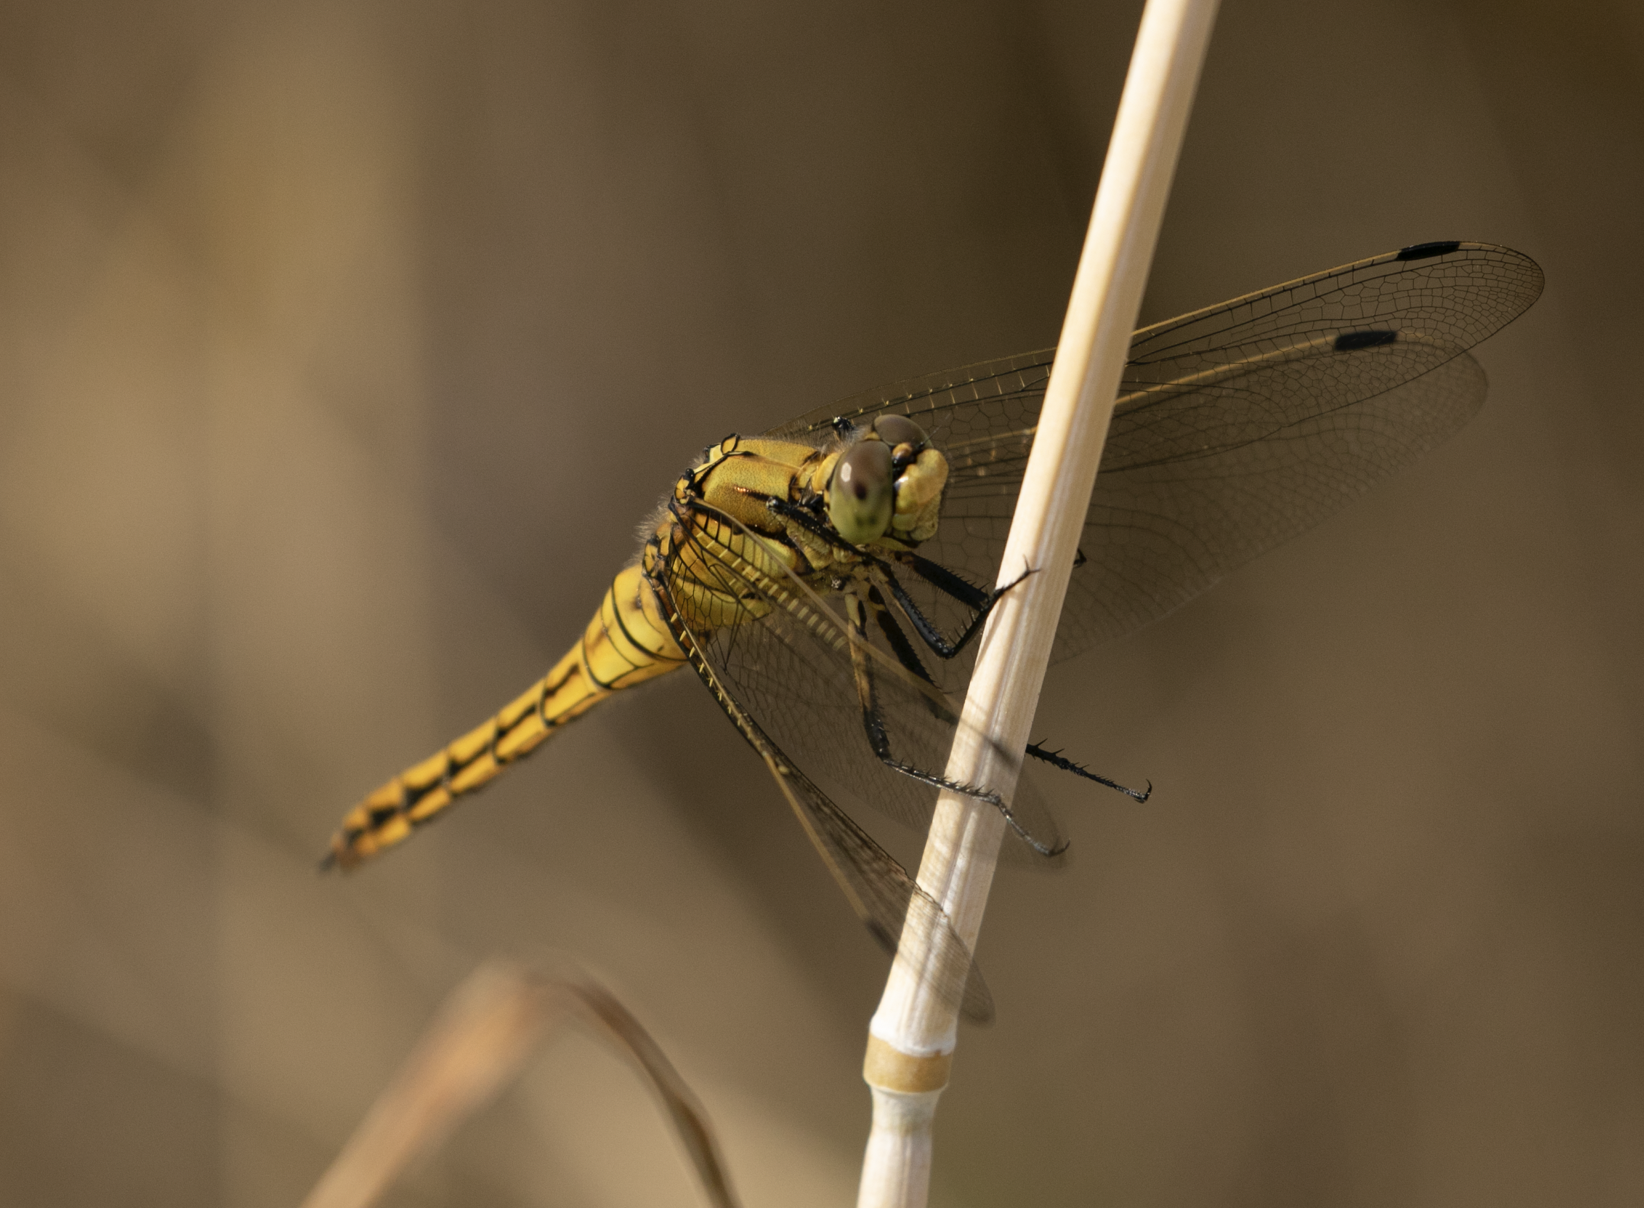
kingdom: Animalia
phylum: Arthropoda
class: Insecta
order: Odonata
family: Libellulidae
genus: Orthetrum
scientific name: Orthetrum cancellatum
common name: Black-tailed skimmer
